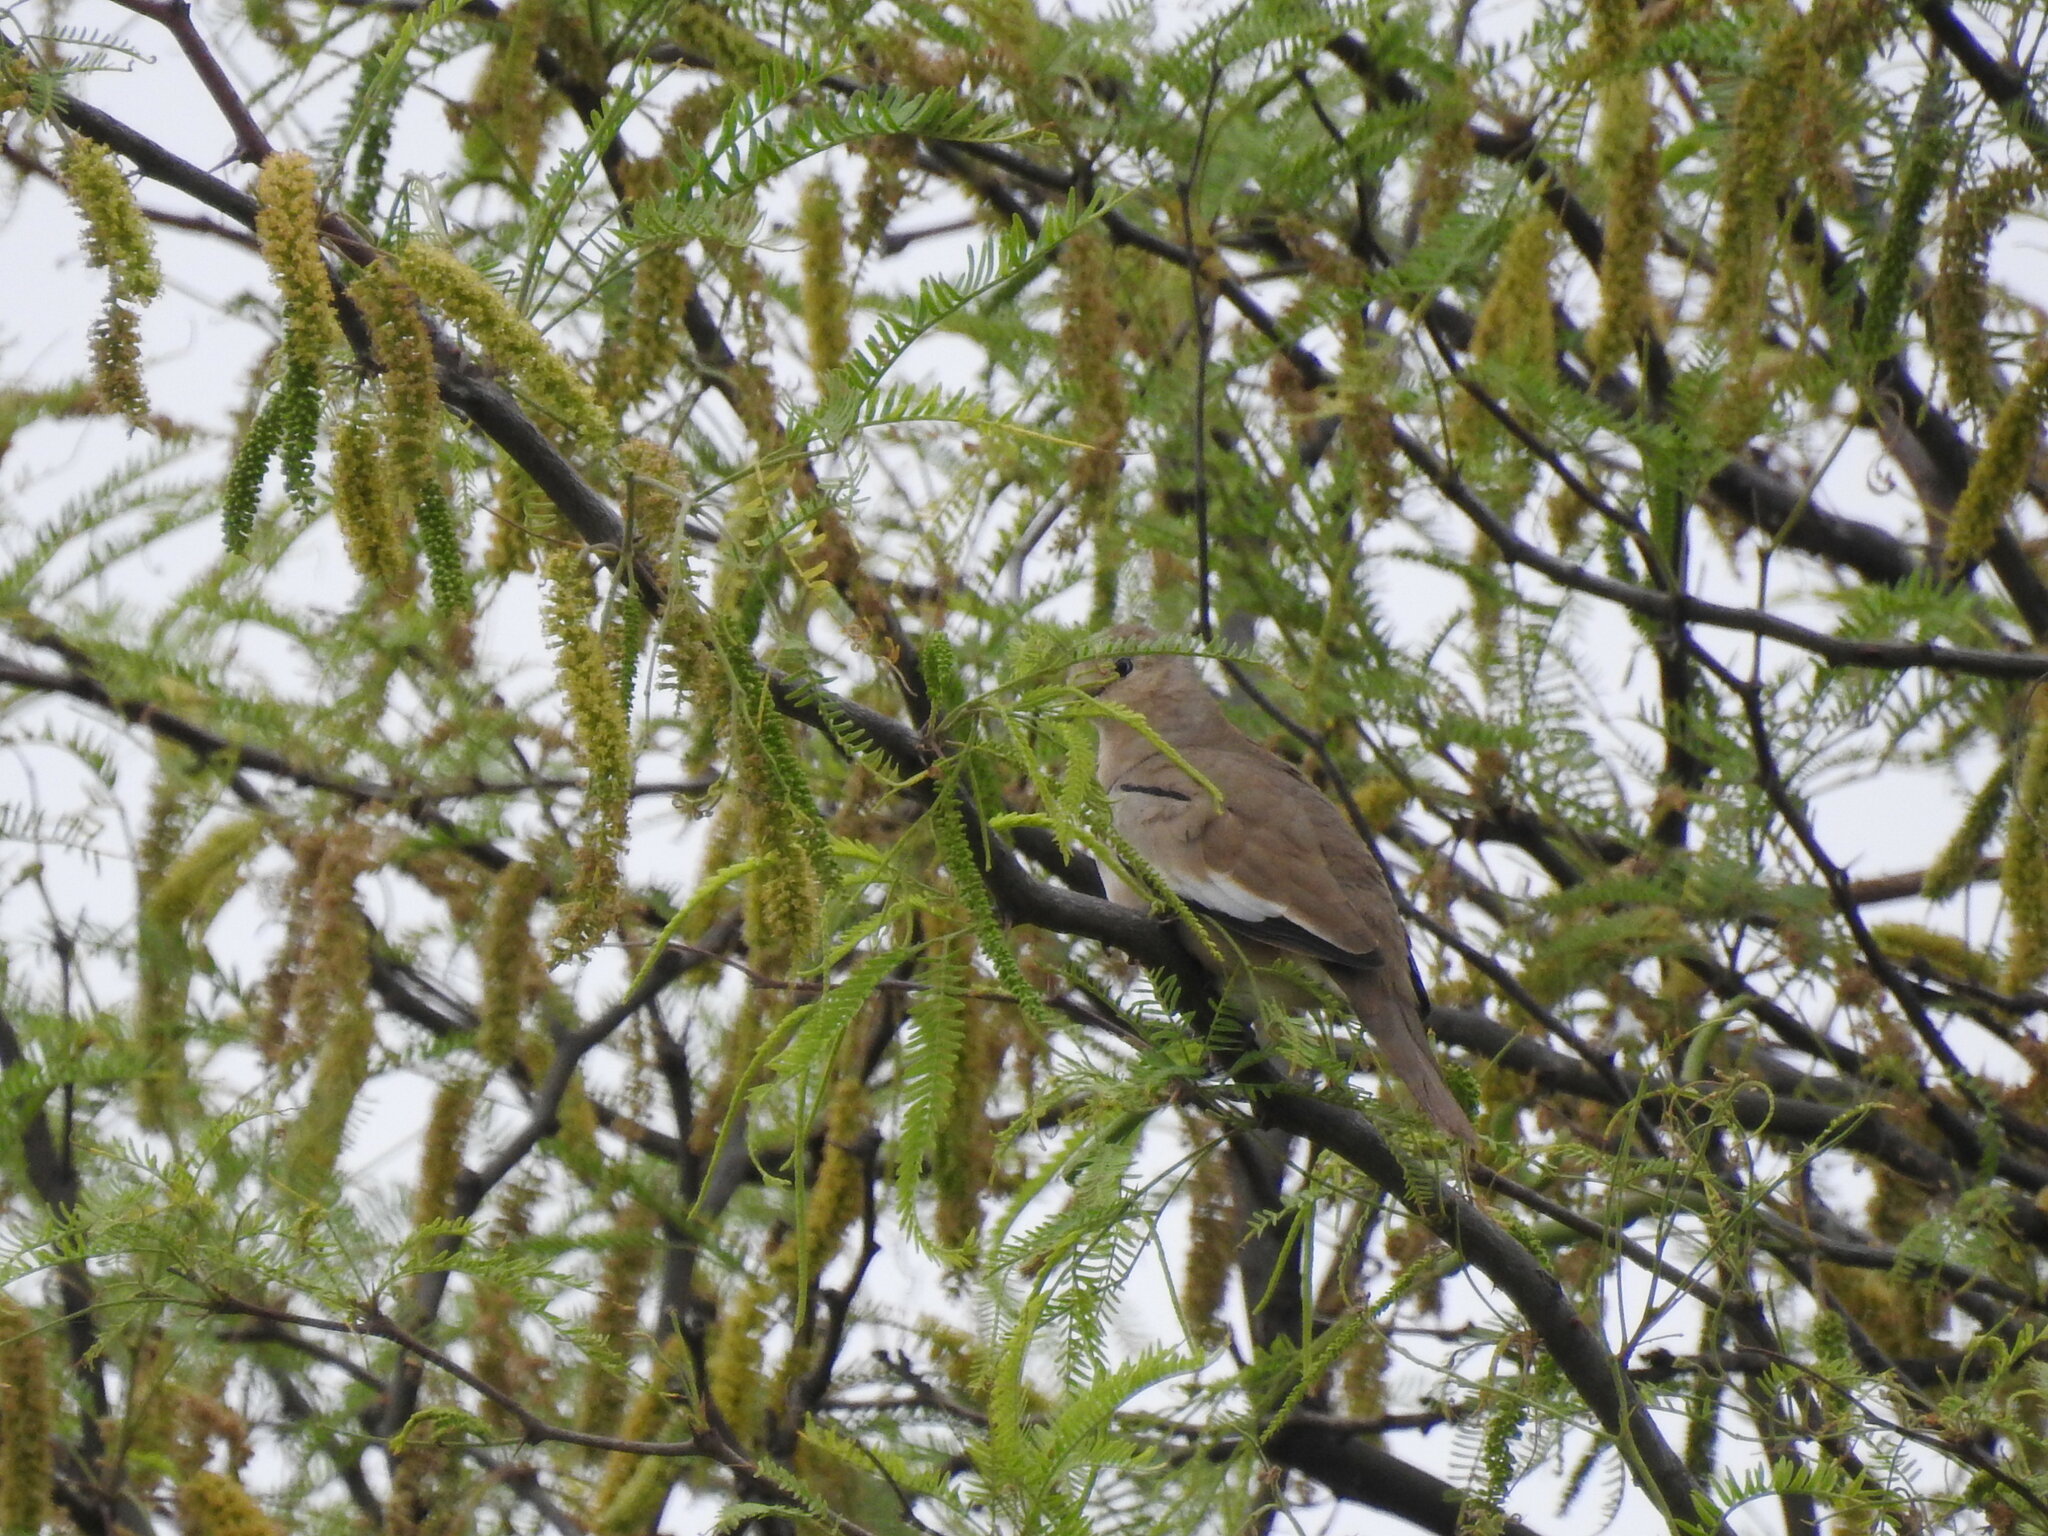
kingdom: Animalia
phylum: Chordata
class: Aves
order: Columbiformes
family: Columbidae
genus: Columbina
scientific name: Columbina picui
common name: Picui ground dove
